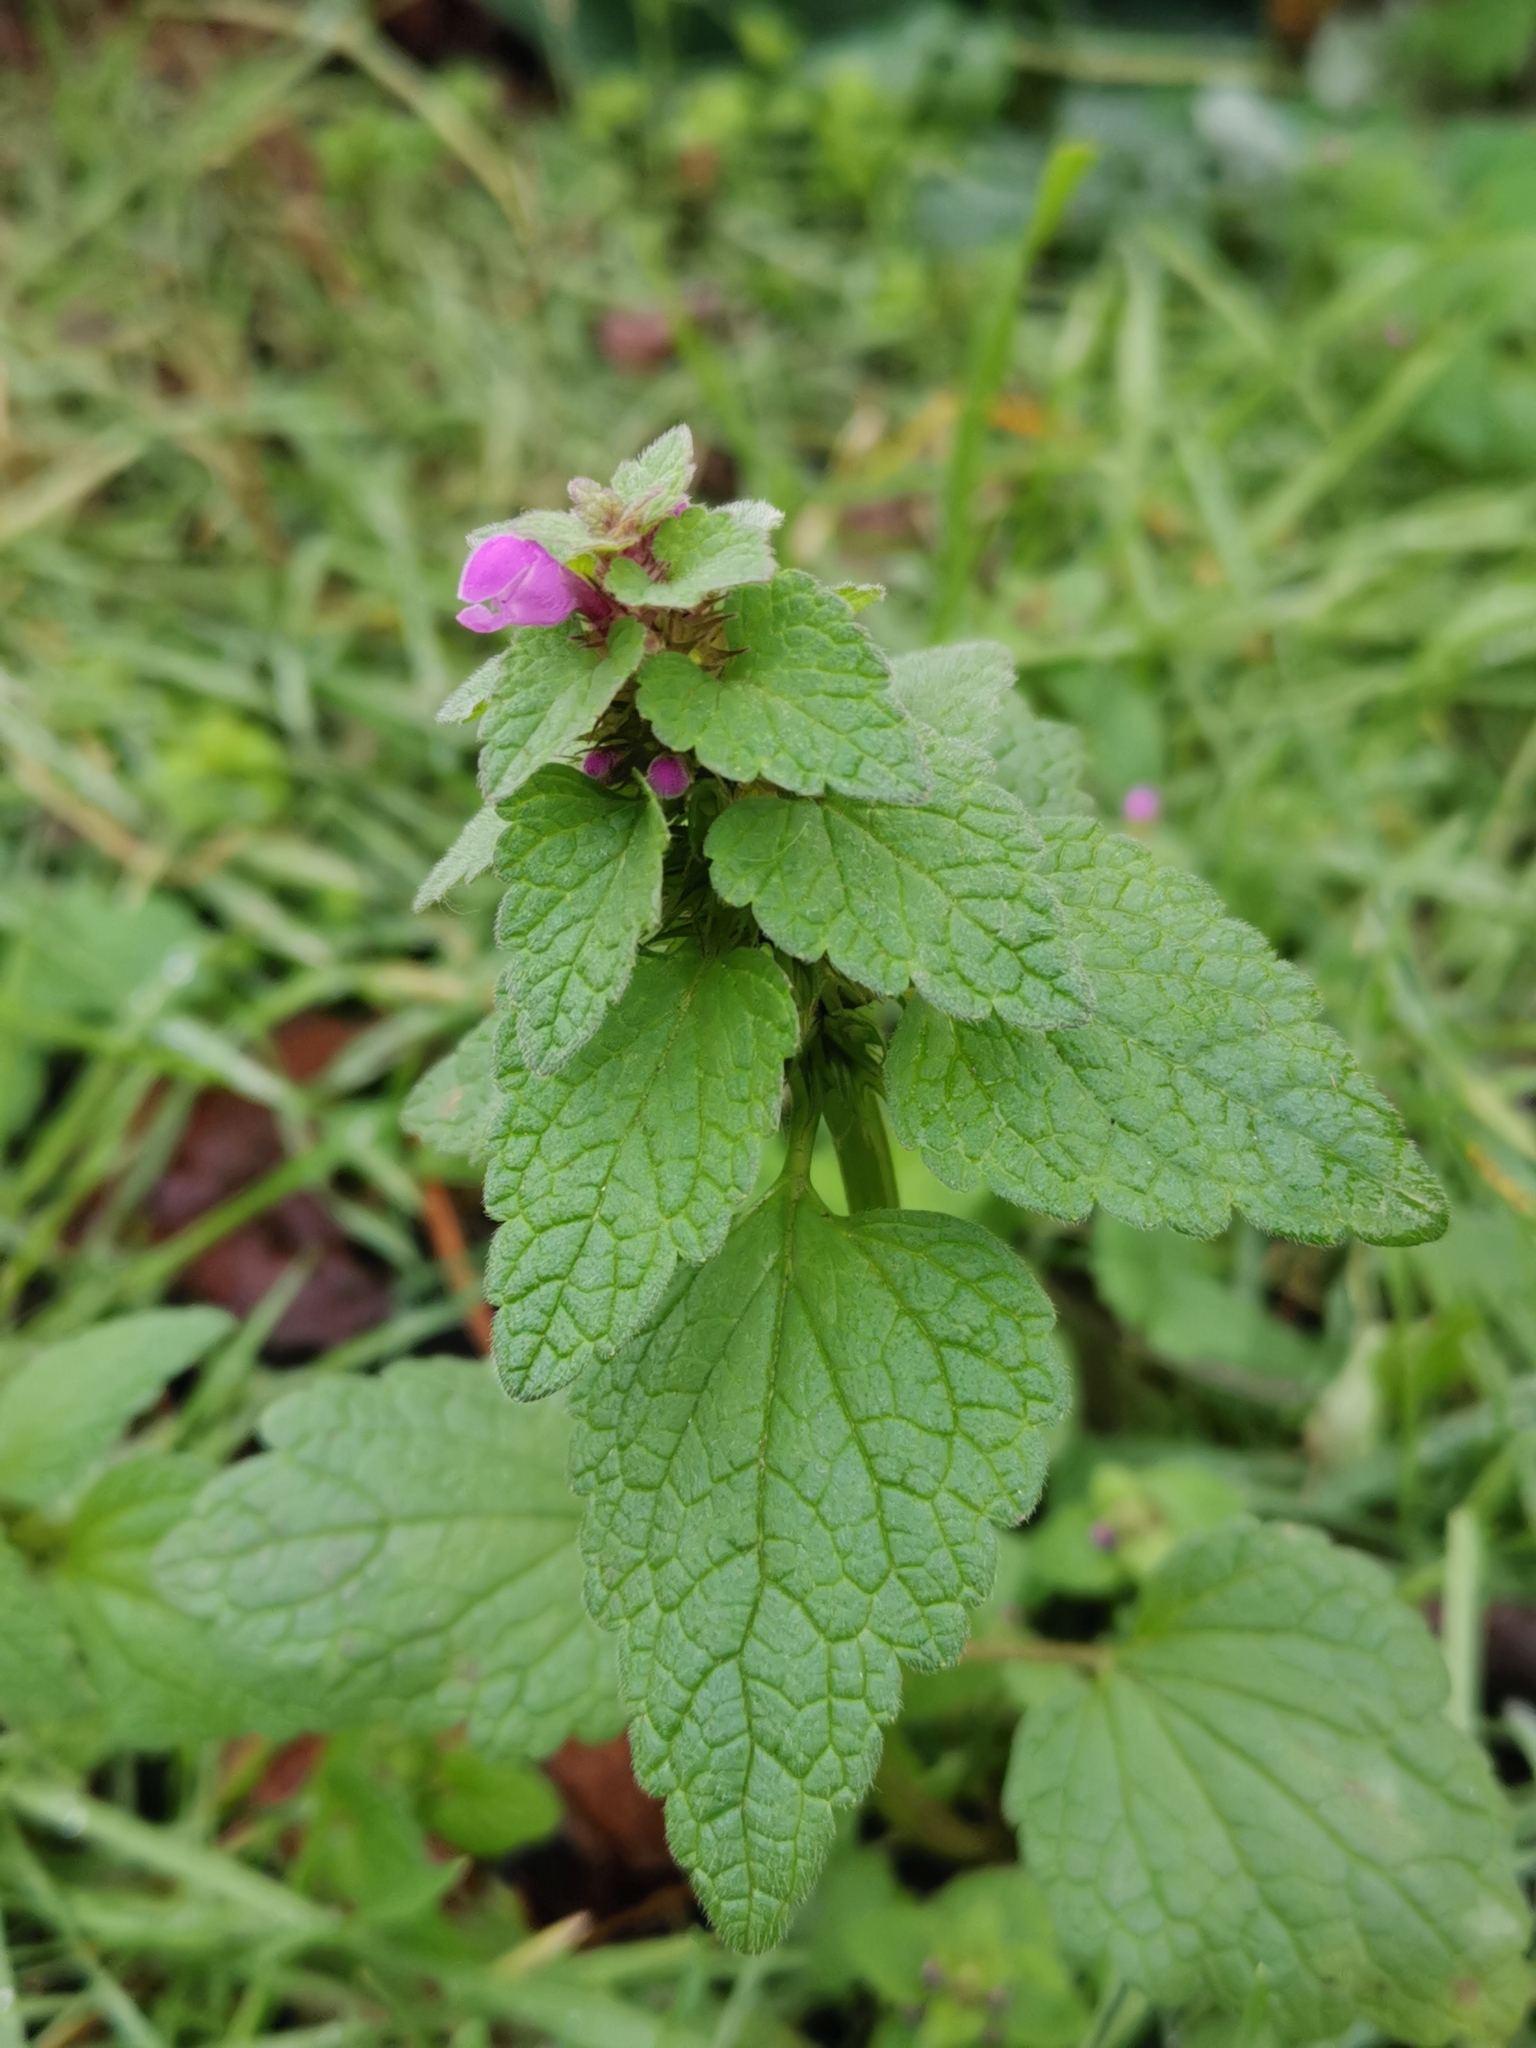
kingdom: Plantae
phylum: Tracheophyta
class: Magnoliopsida
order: Lamiales
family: Lamiaceae
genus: Lamium
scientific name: Lamium purpureum
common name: Red dead-nettle
